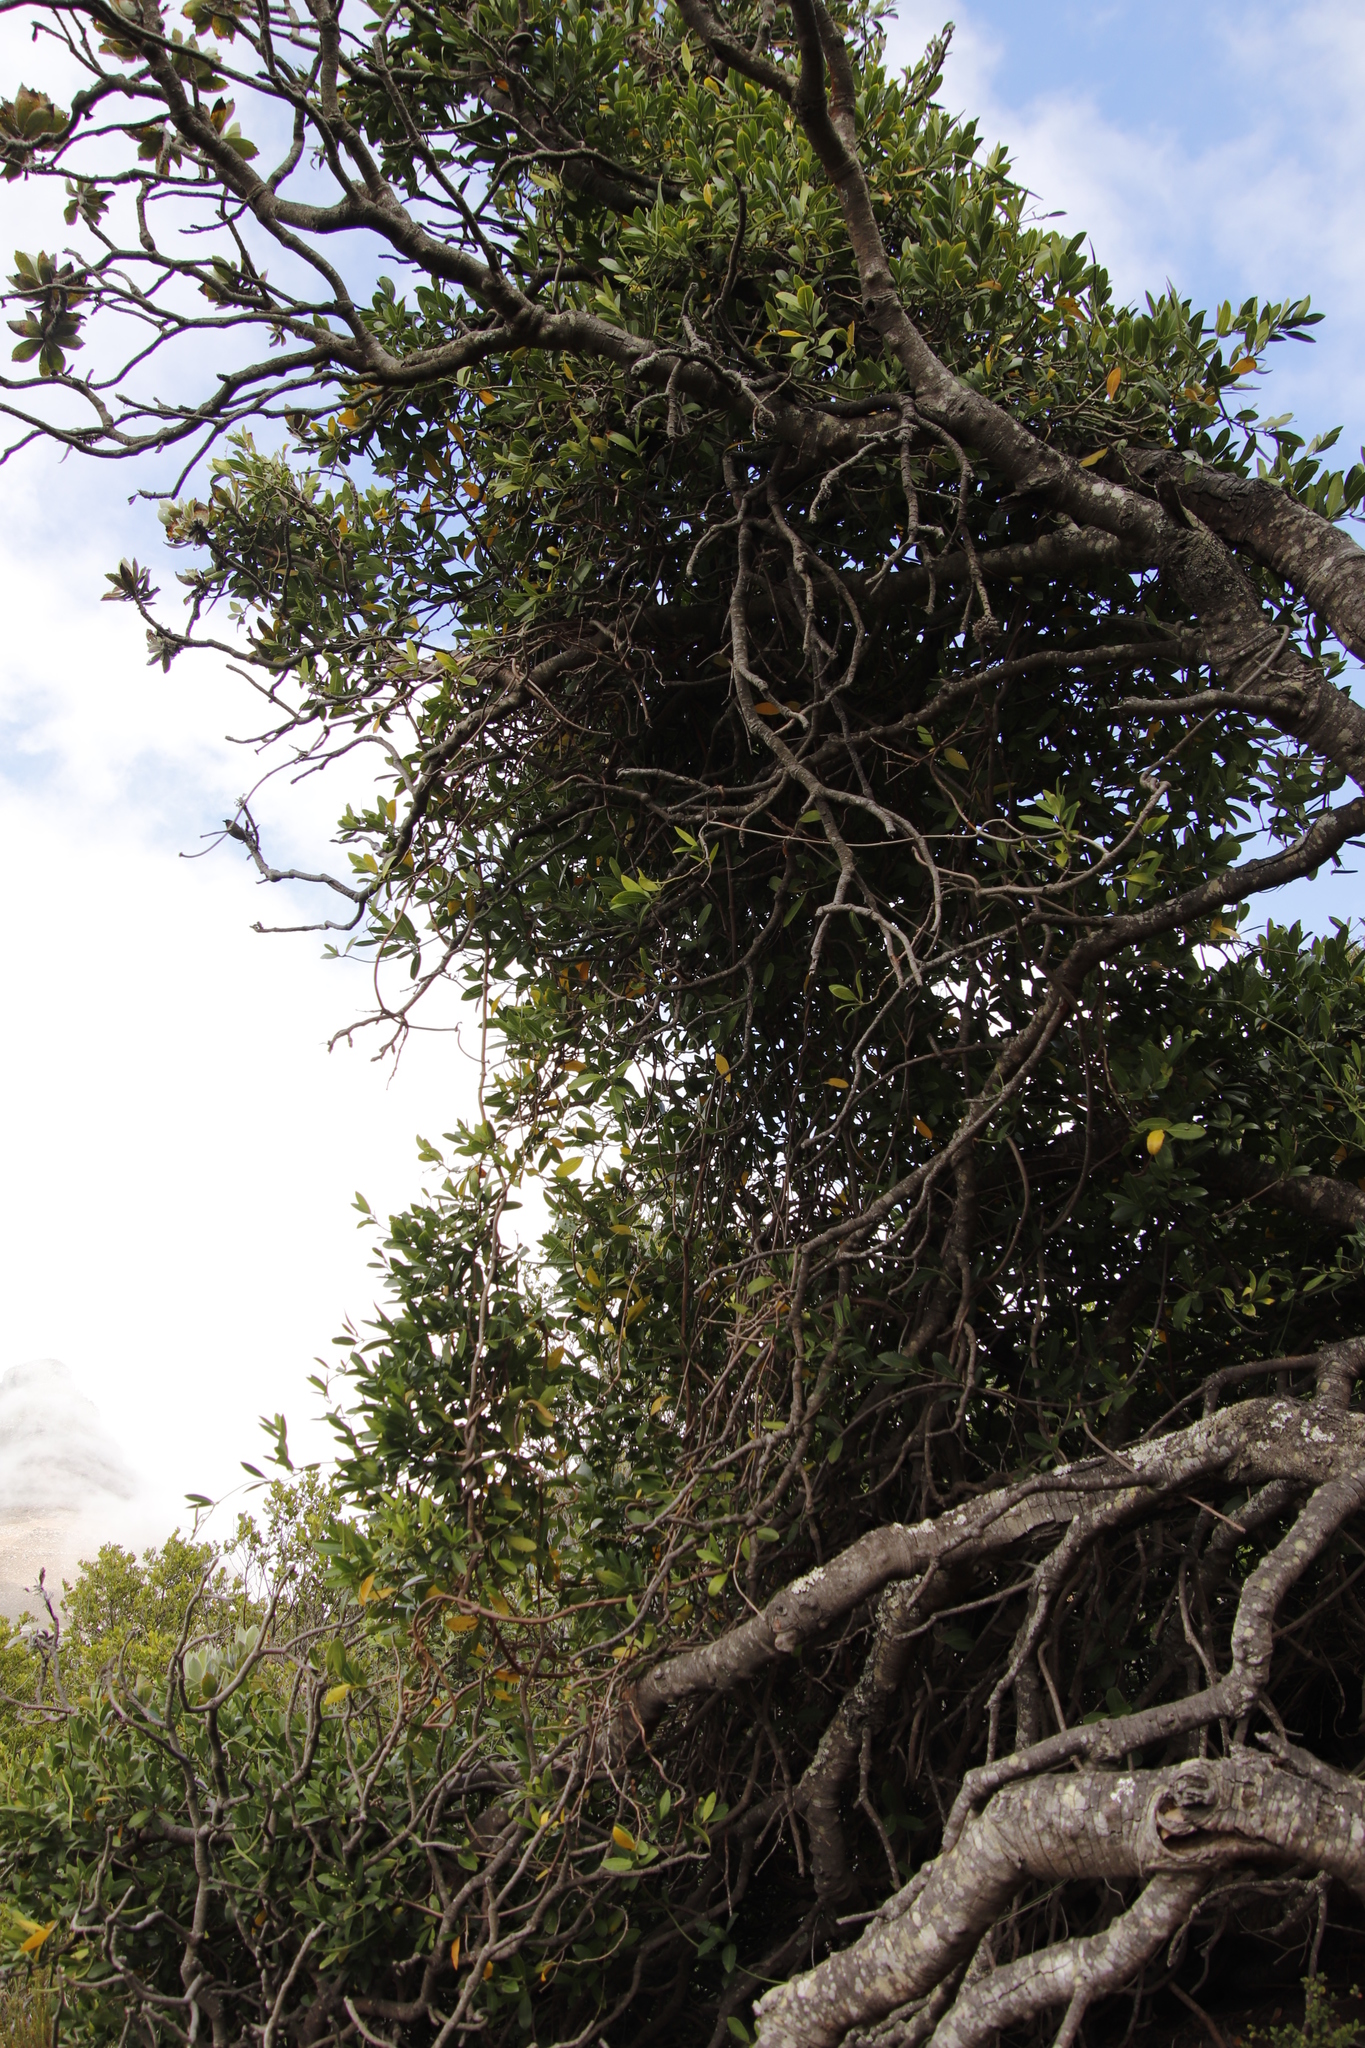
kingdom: Plantae
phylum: Tracheophyta
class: Magnoliopsida
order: Gentianales
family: Apocynaceae
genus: Secamone
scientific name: Secamone alpini
